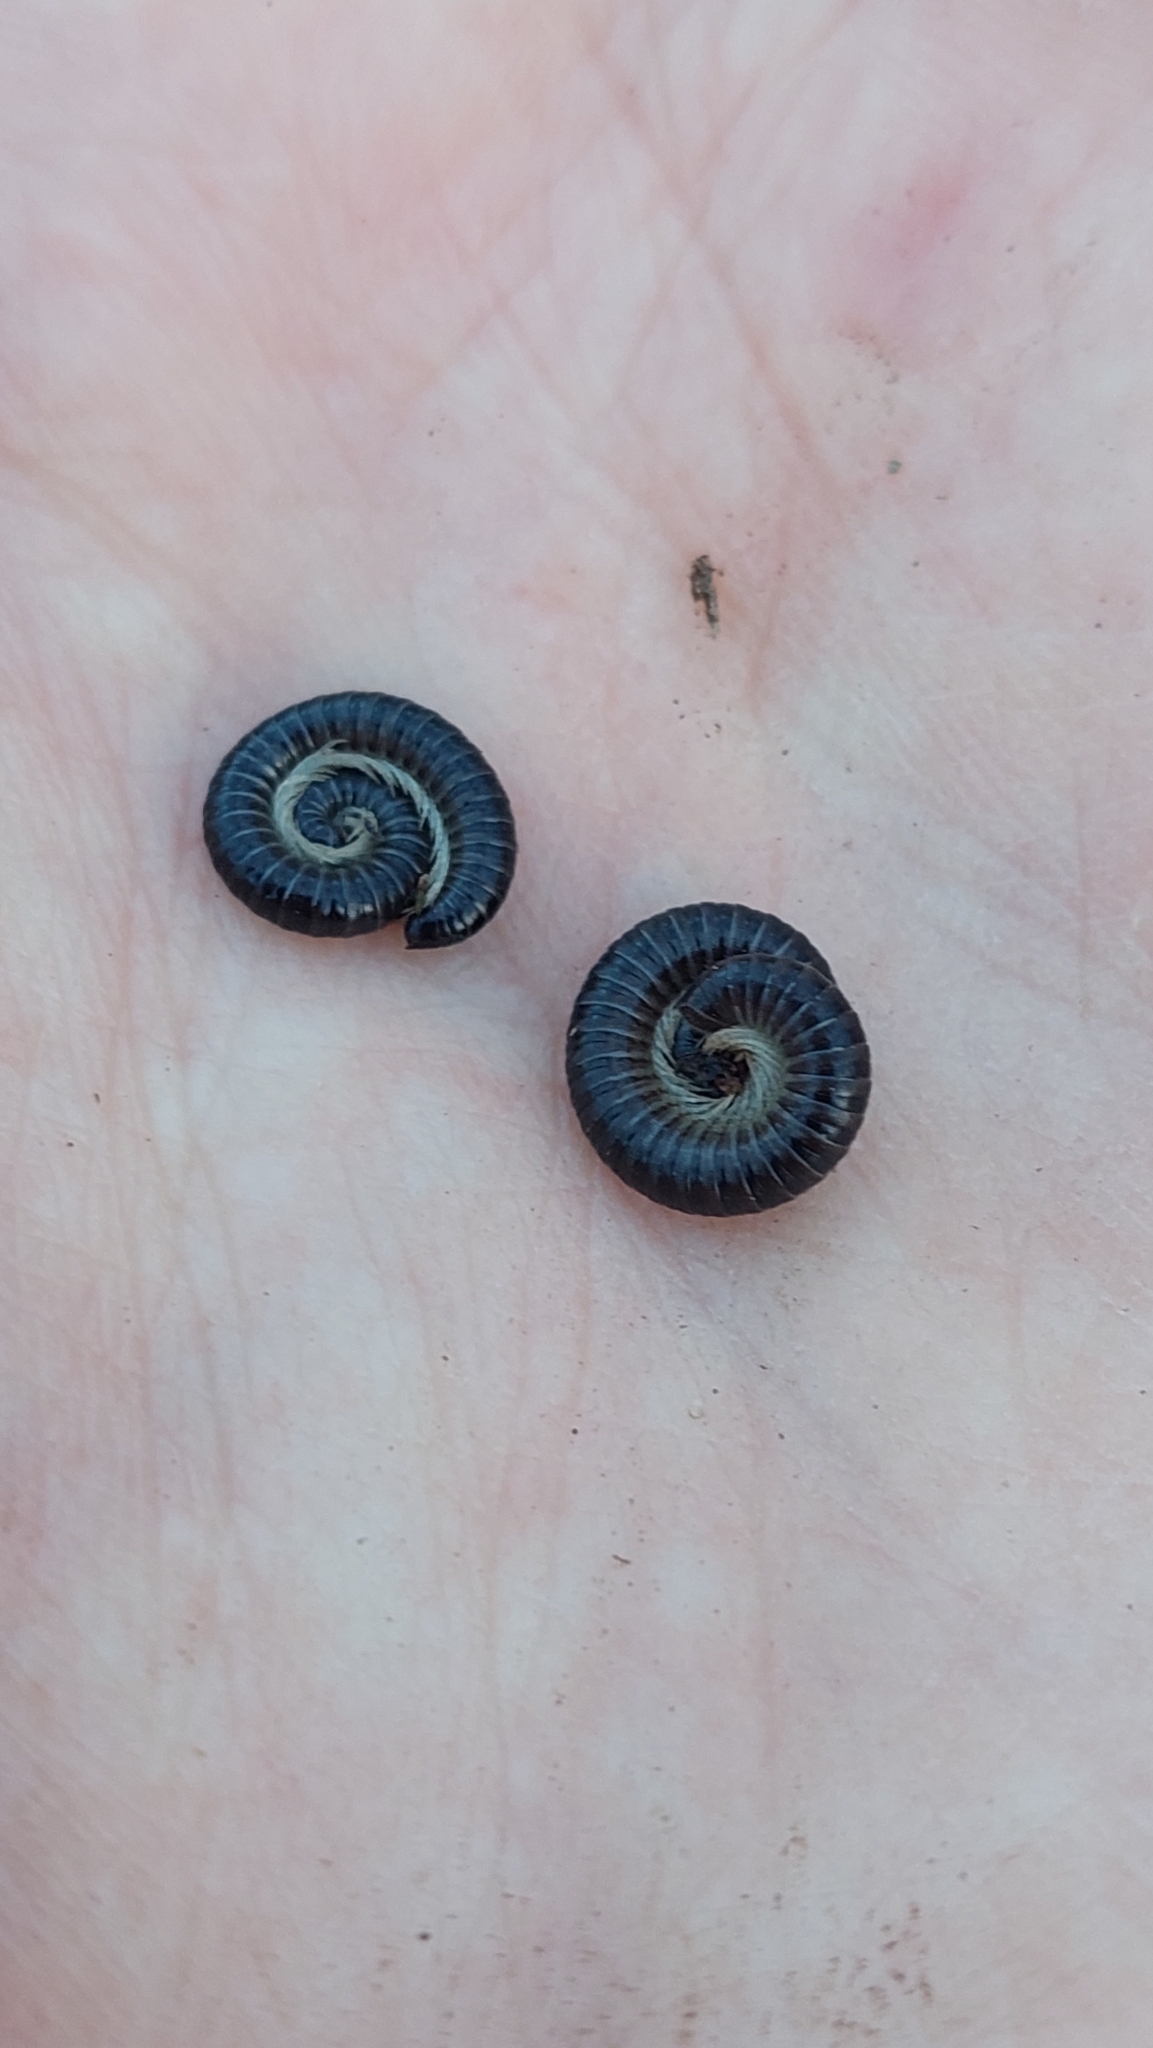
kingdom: Animalia
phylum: Arthropoda
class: Diplopoda
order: Julida
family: Julidae
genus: Tachypodoiulus
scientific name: Tachypodoiulus niger
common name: White-legged snake millipede
